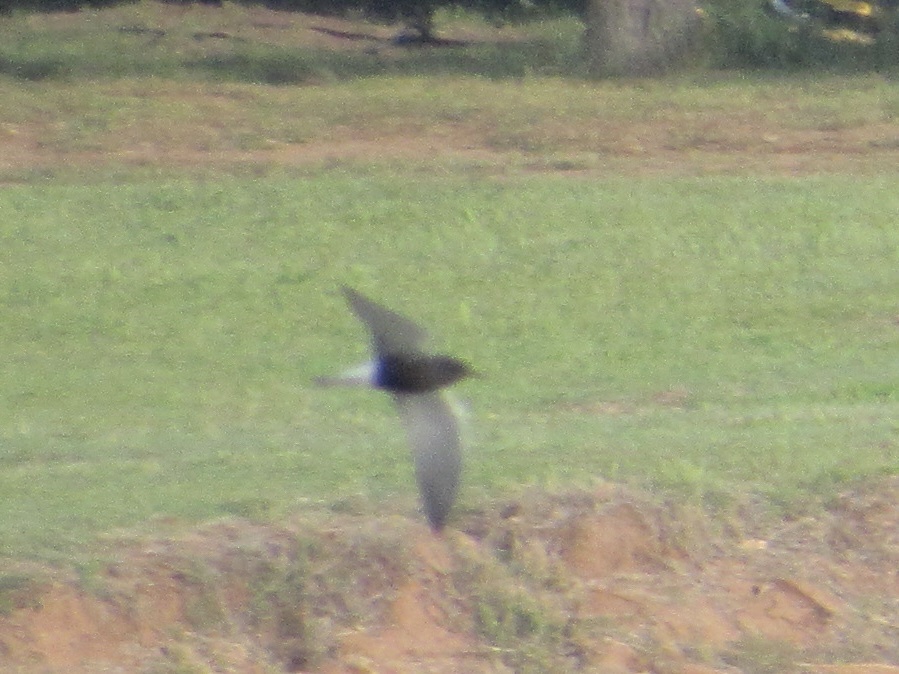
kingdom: Animalia
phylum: Chordata
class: Aves
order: Charadriiformes
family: Laridae
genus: Chlidonias
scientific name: Chlidonias niger
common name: Black tern
